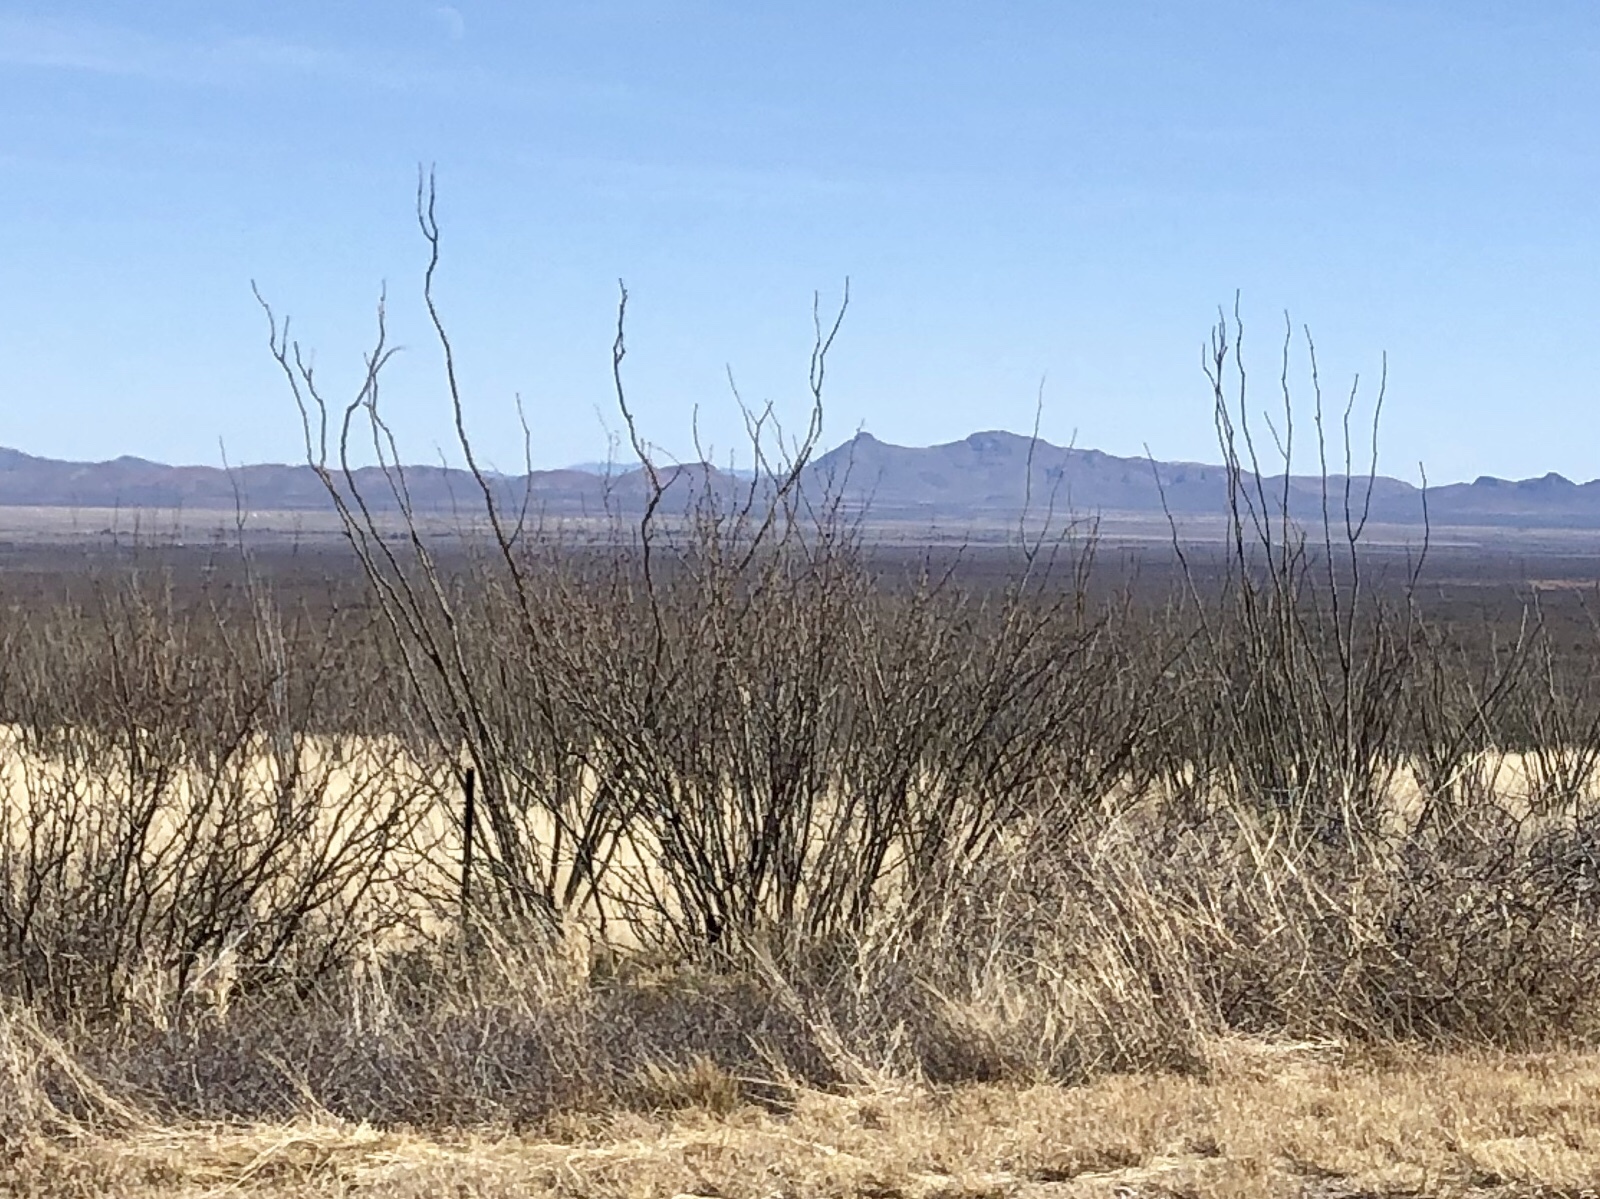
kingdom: Plantae
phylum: Tracheophyta
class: Magnoliopsida
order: Ericales
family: Fouquieriaceae
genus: Fouquieria
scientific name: Fouquieria splendens
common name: Vine-cactus
